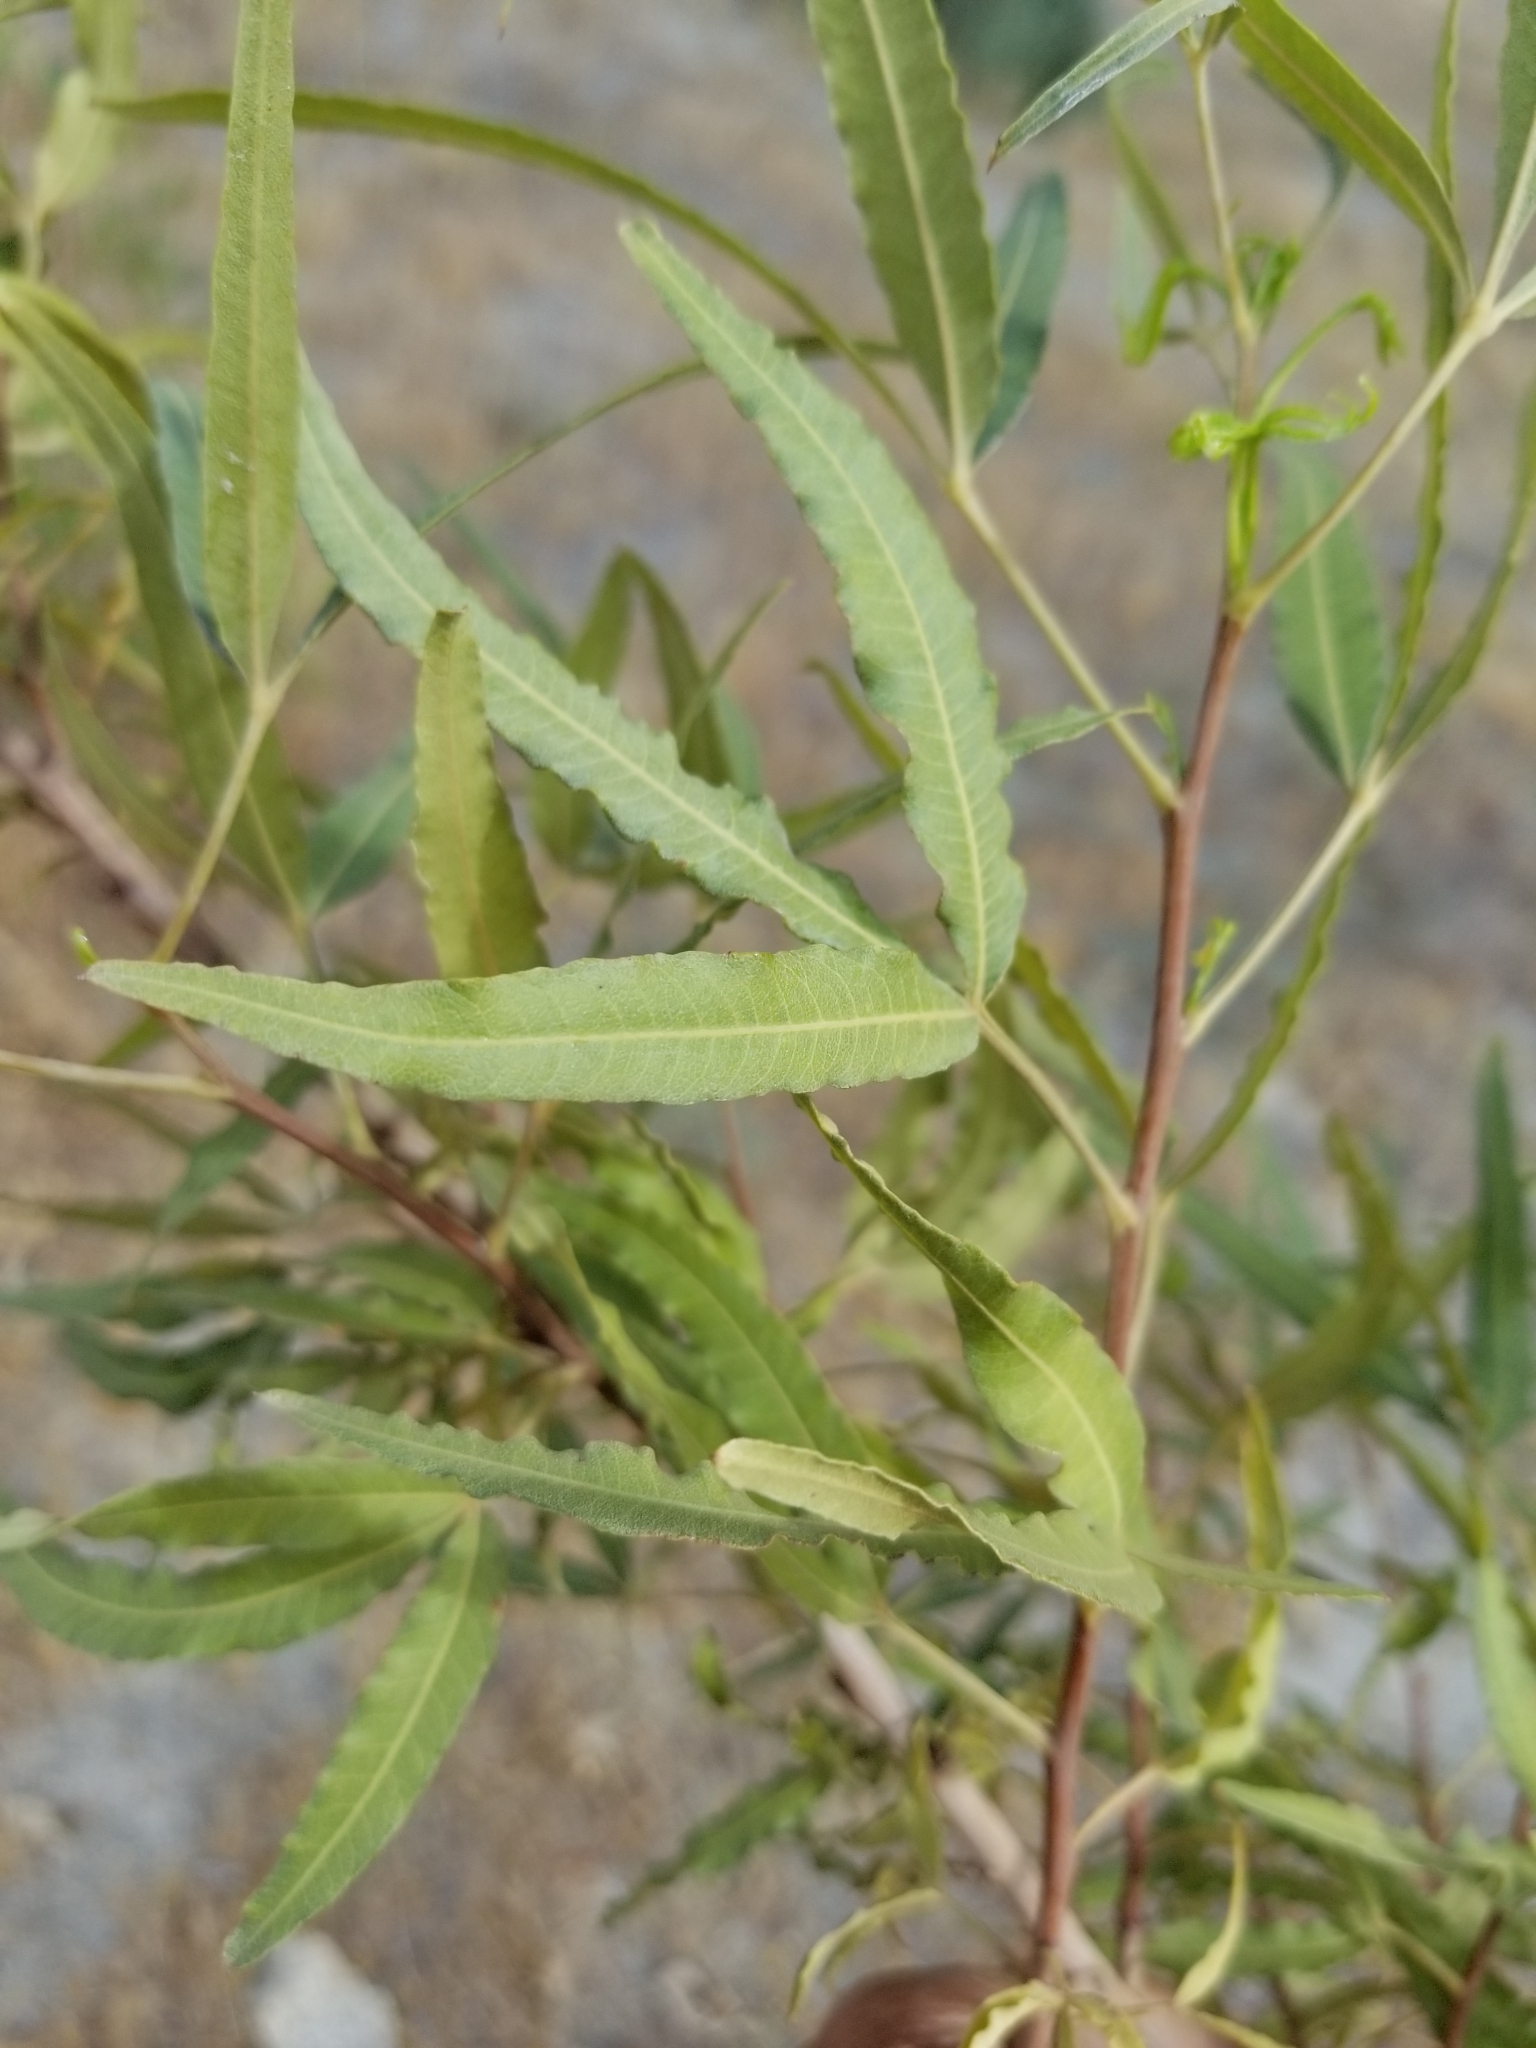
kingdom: Plantae
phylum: Tracheophyta
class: Magnoliopsida
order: Sapindales
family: Anacardiaceae
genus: Searsia
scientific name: Searsia lancea
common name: Cashew
